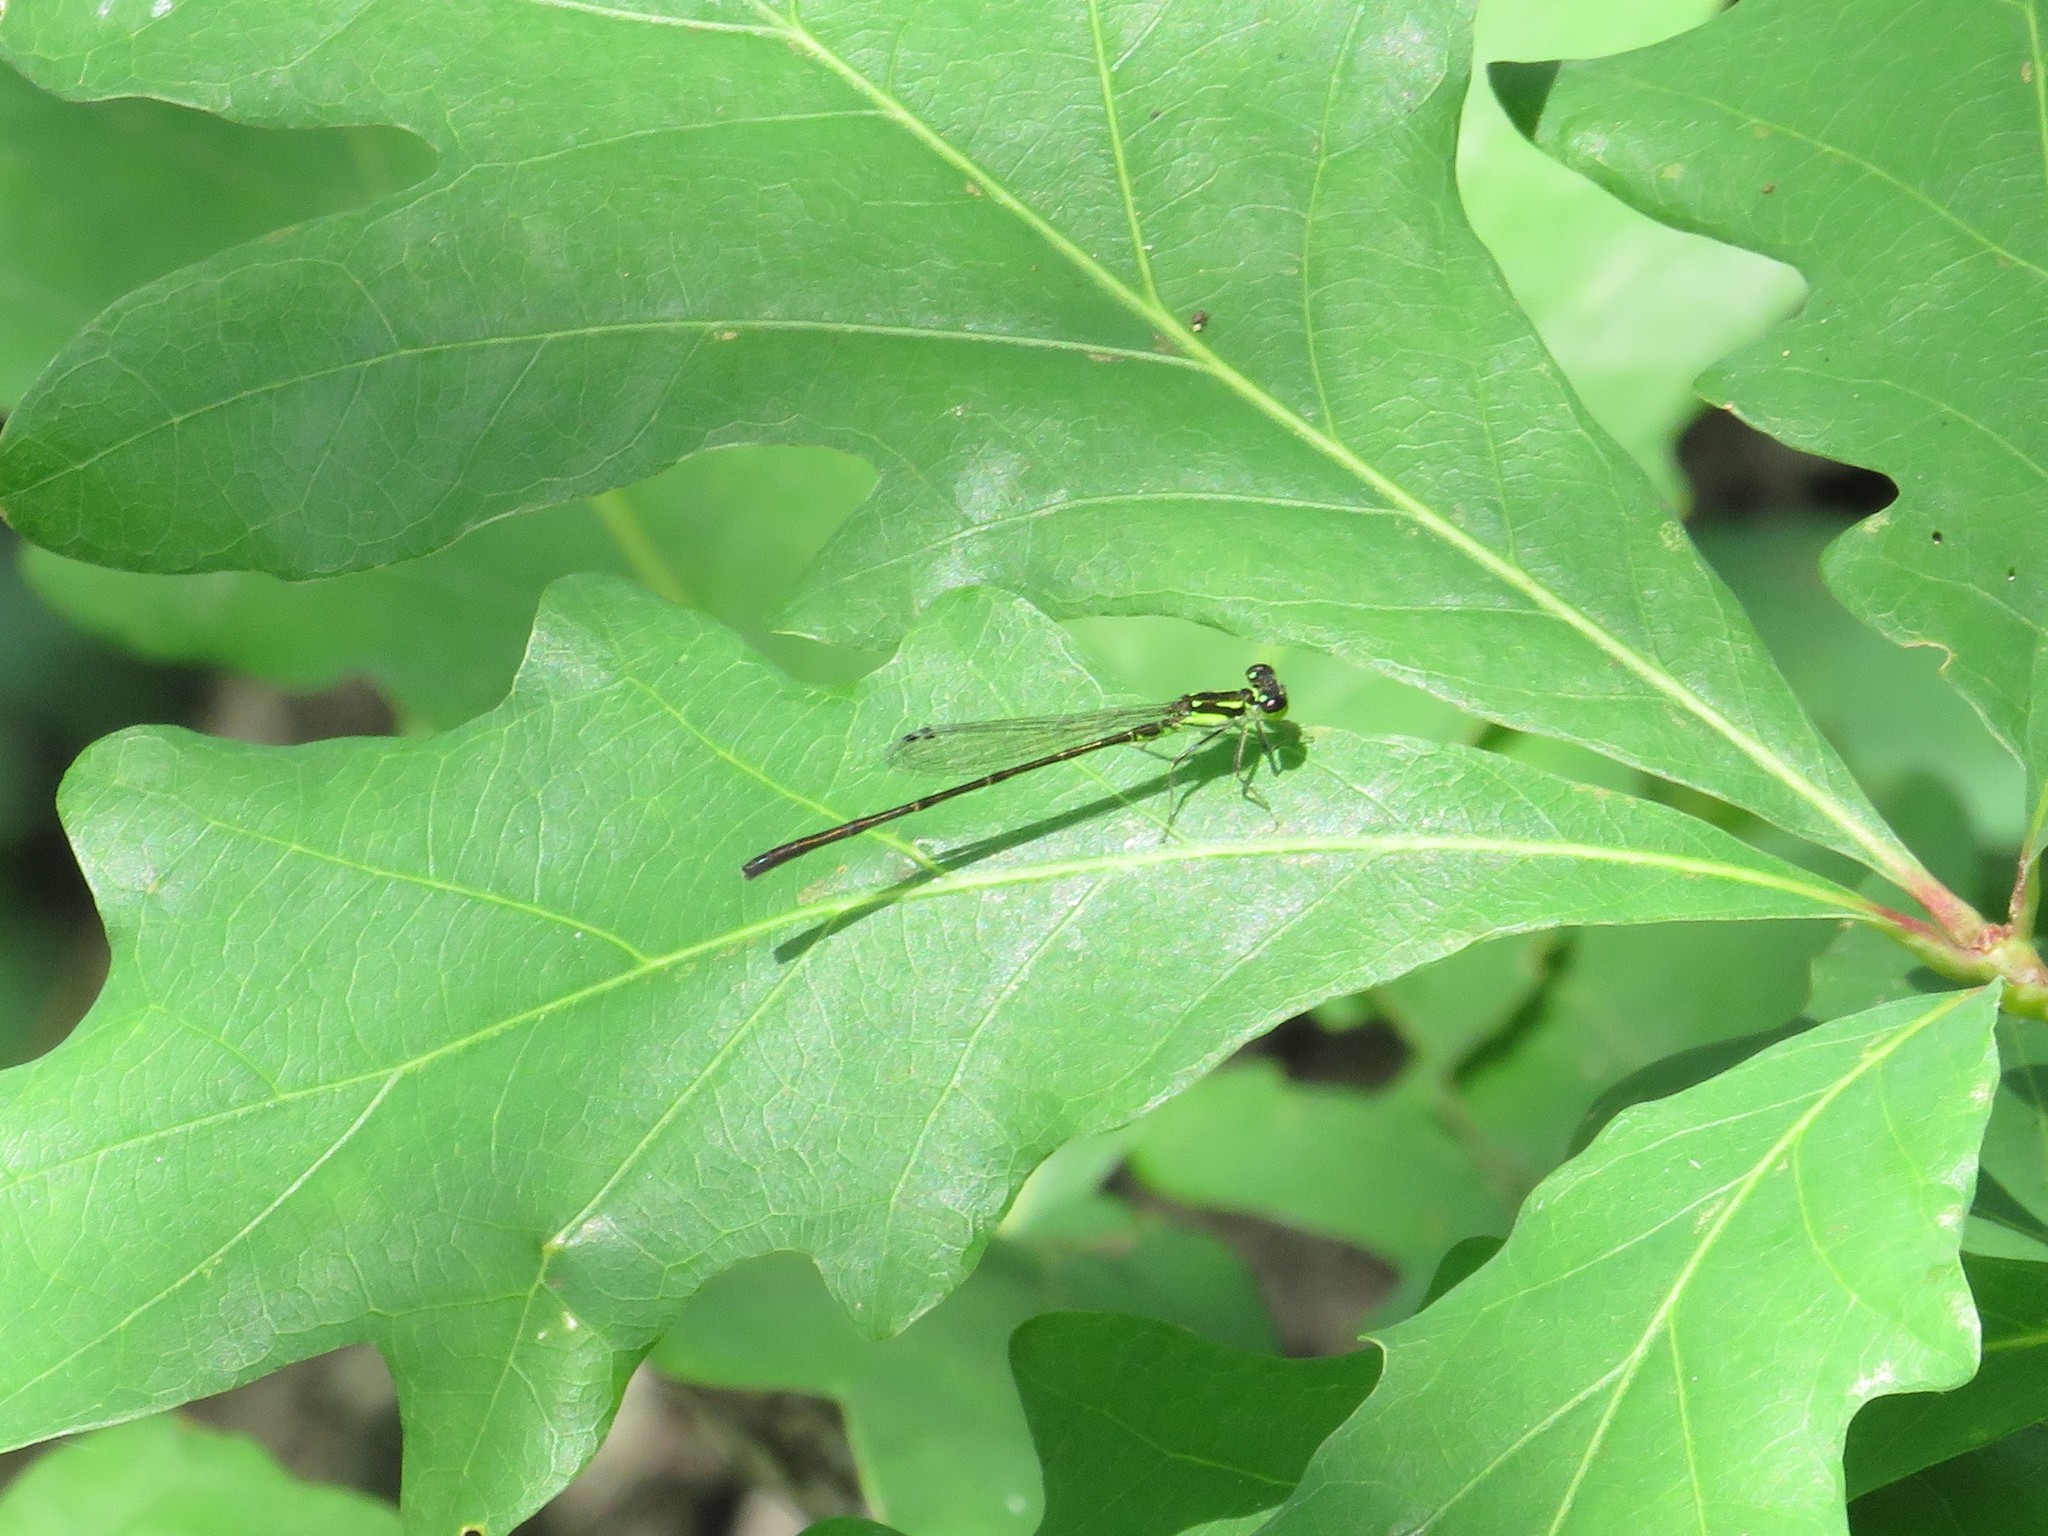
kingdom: Animalia
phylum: Arthropoda
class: Insecta
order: Odonata
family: Coenagrionidae
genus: Ischnura
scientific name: Ischnura posita
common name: Fragile forktail
